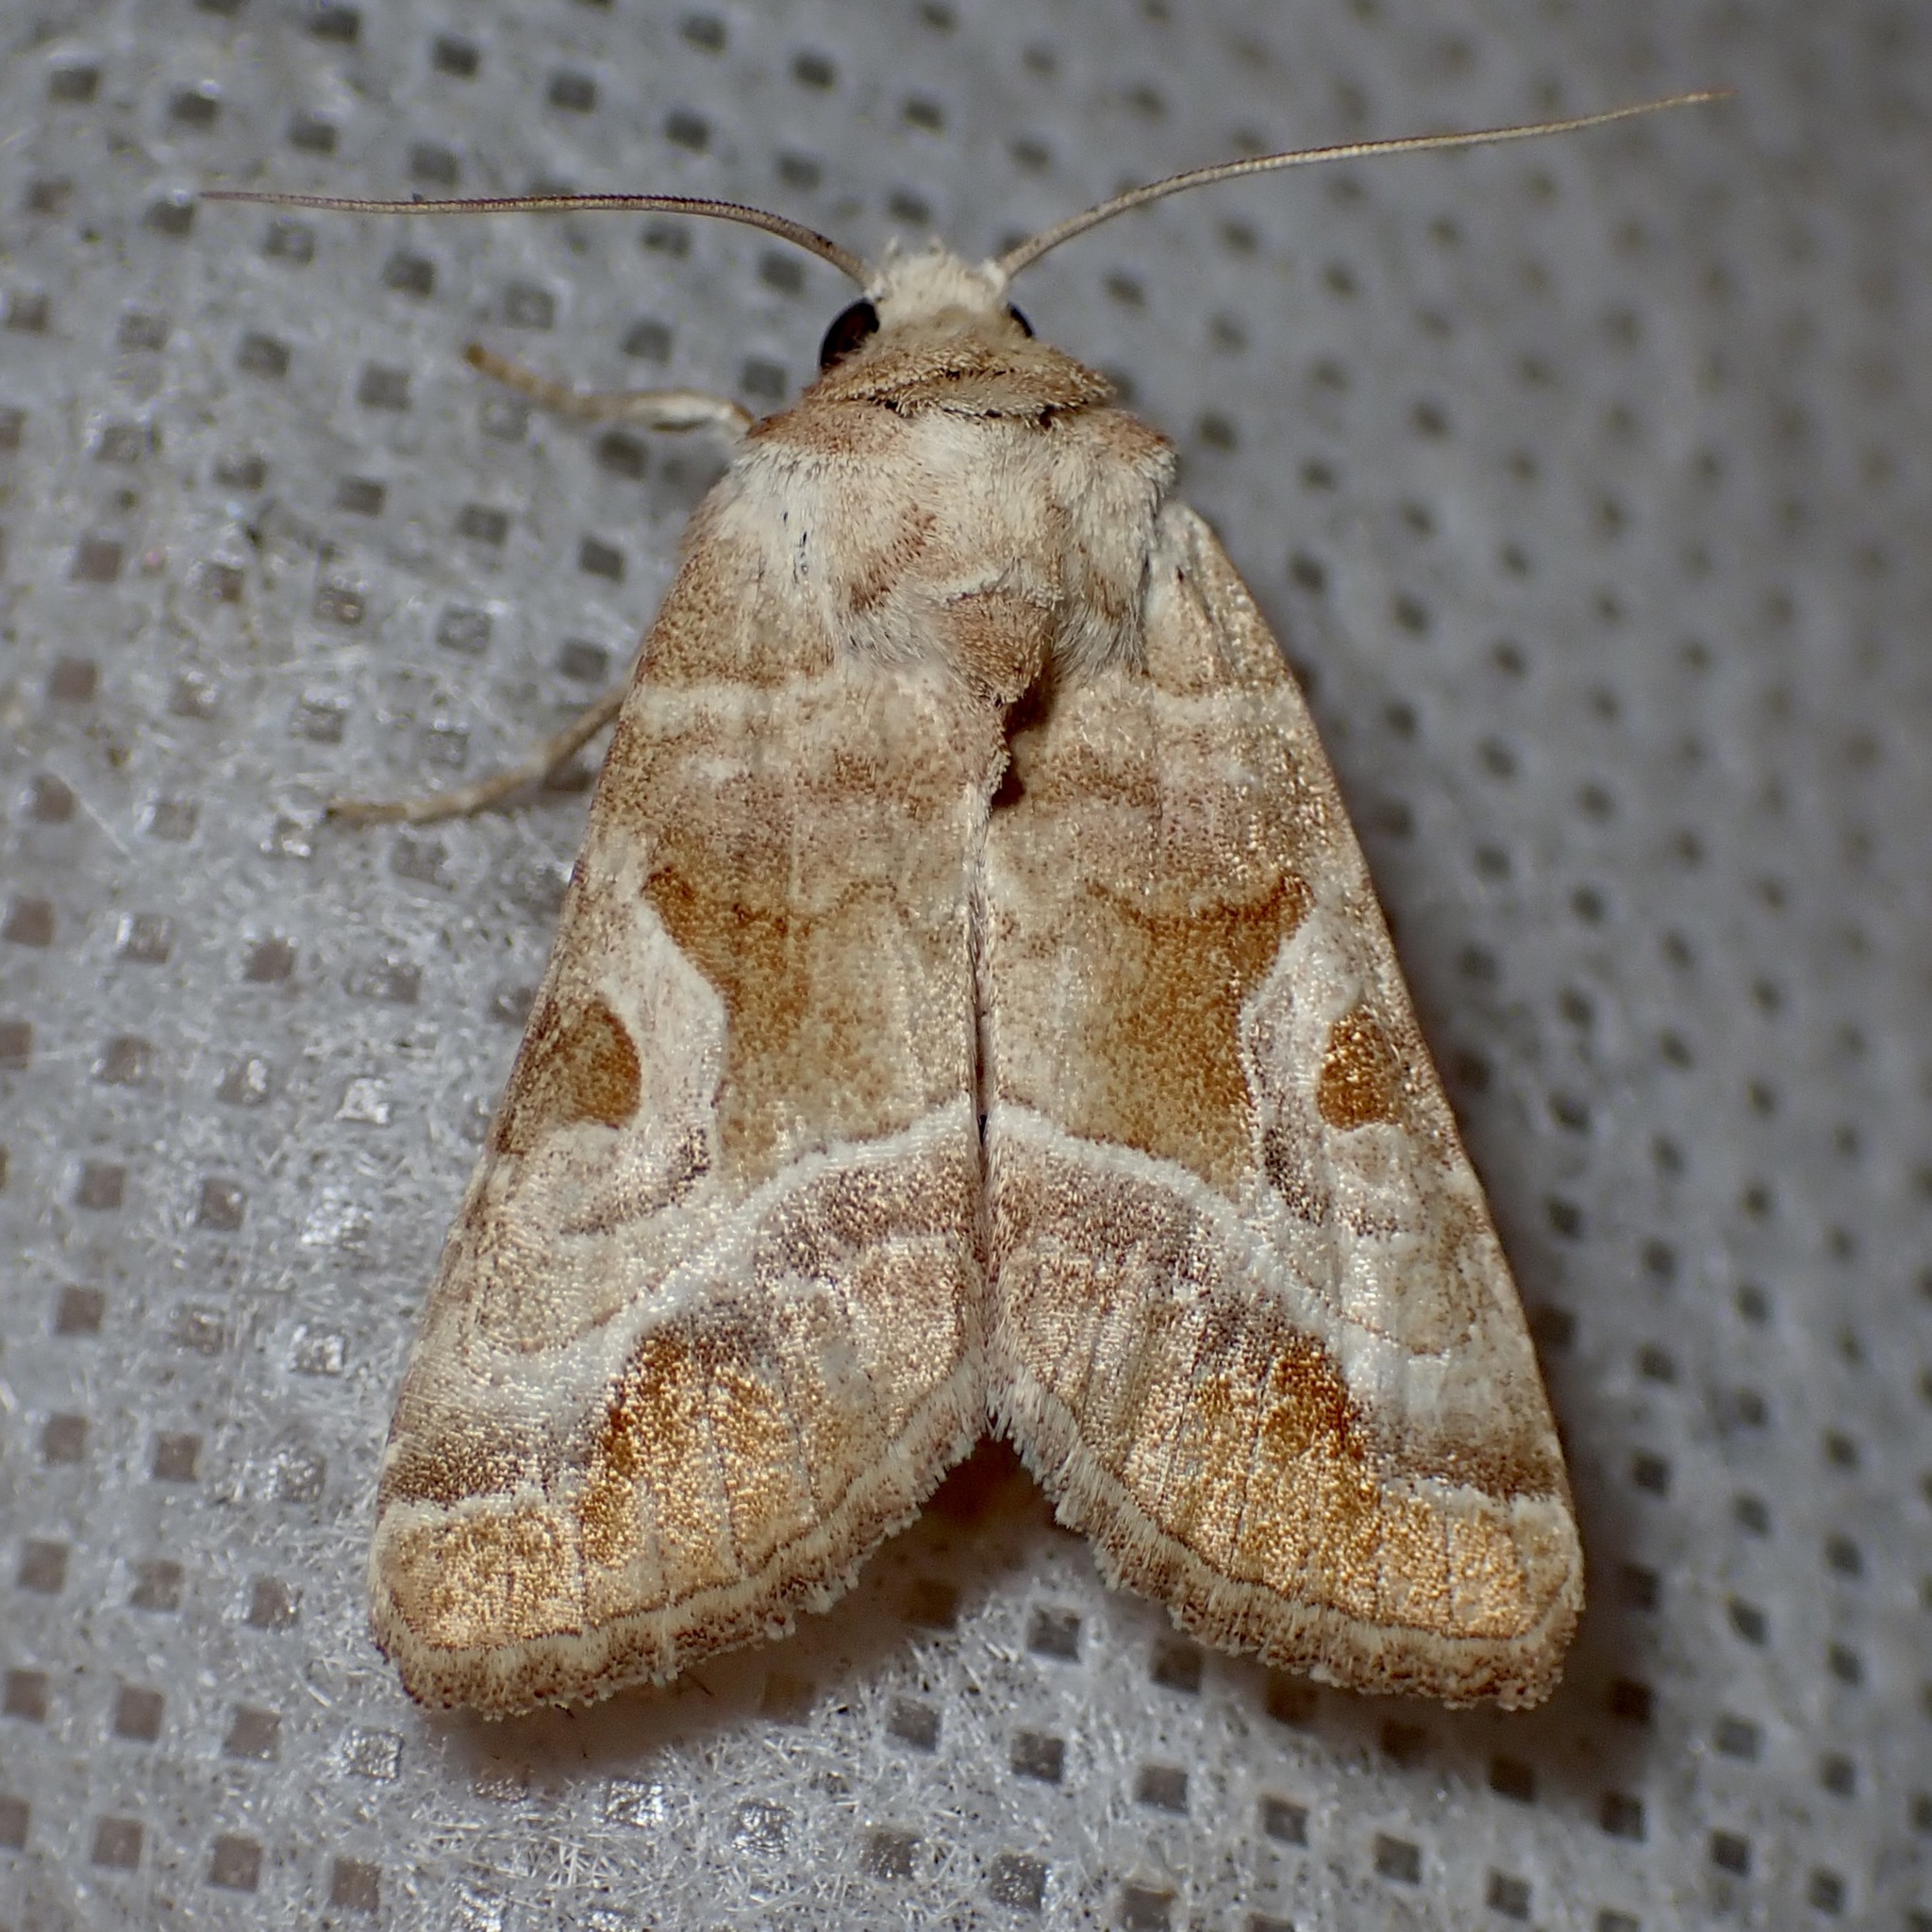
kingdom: Animalia
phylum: Arthropoda
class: Insecta
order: Lepidoptera
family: Noctuidae
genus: Hexorthodes
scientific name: Hexorthodes accurata
